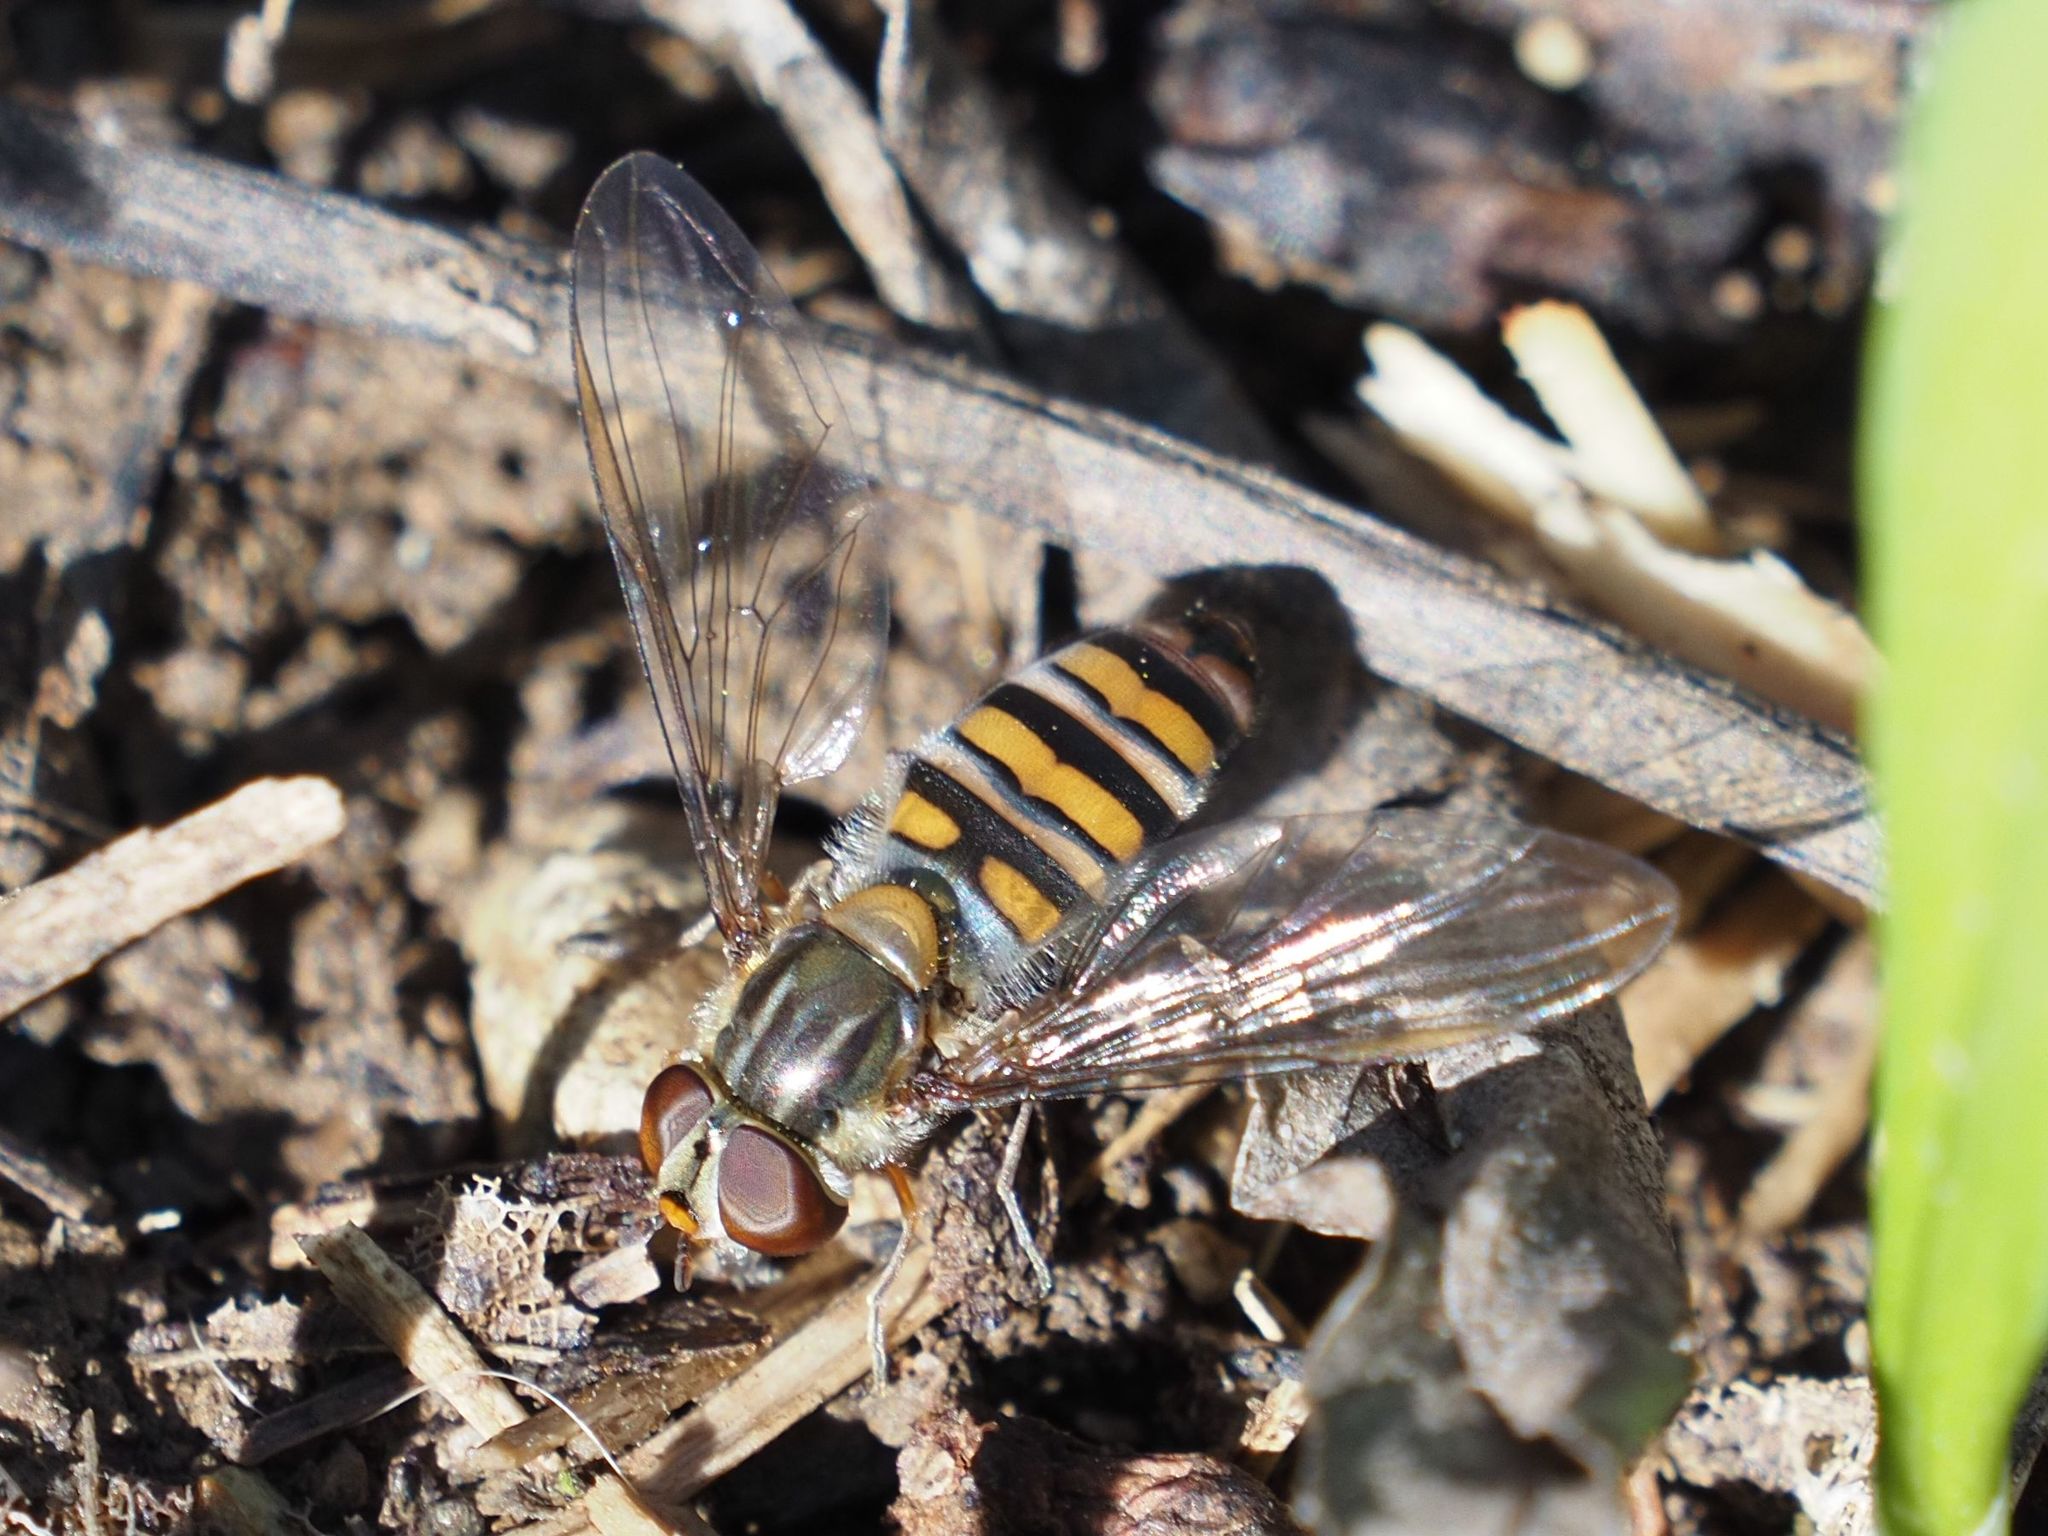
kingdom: Animalia
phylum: Arthropoda
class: Insecta
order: Diptera
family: Syrphidae
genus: Episyrphus
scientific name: Episyrphus balteatus
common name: Marmalade hoverfly
